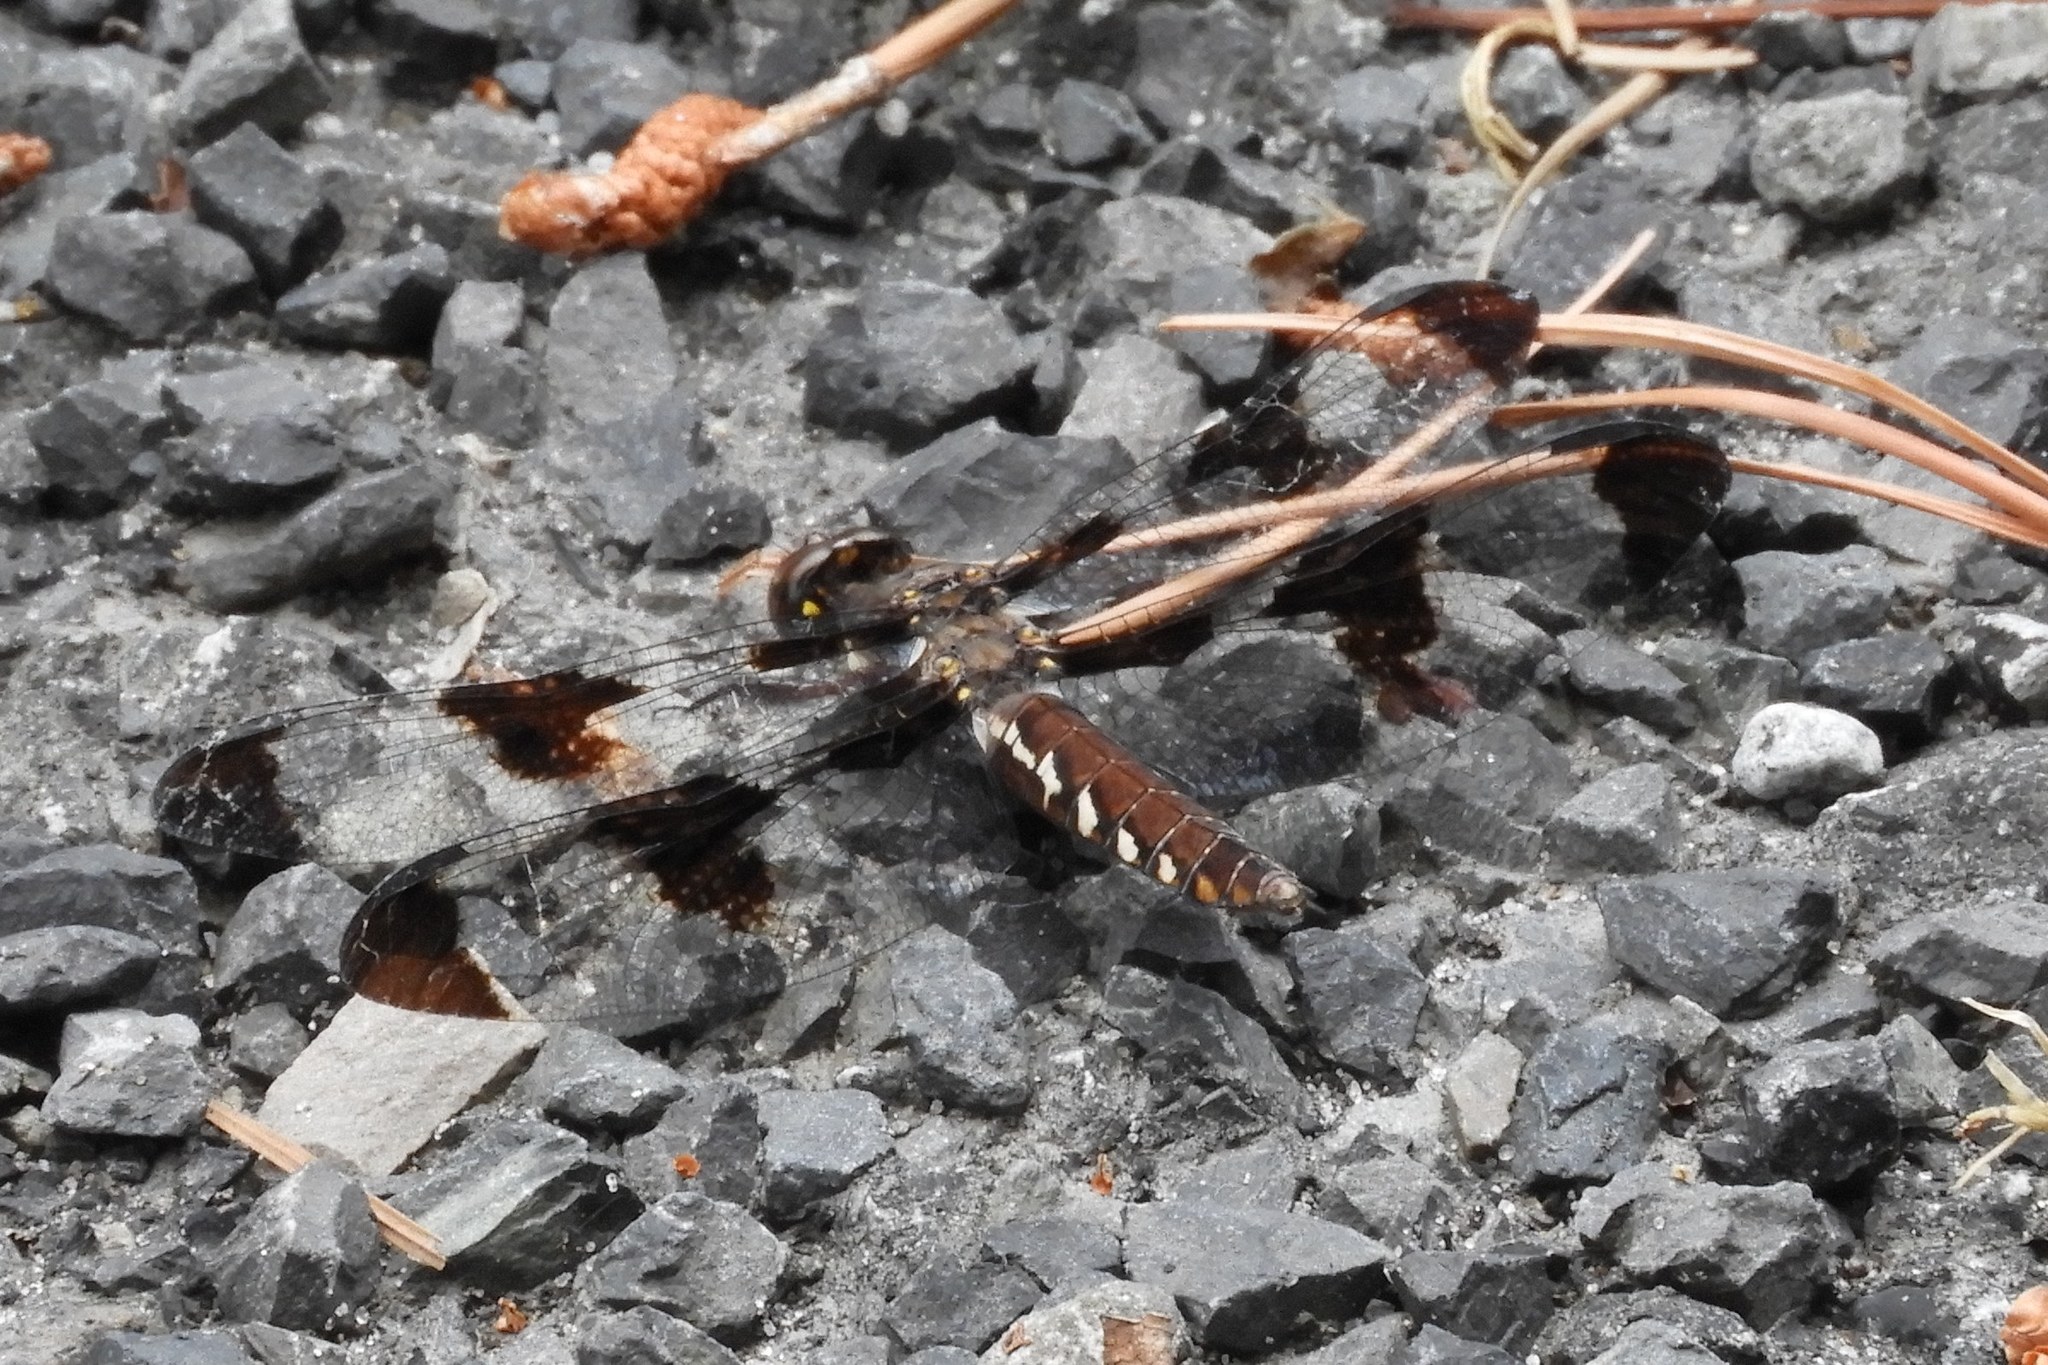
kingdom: Animalia
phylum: Arthropoda
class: Insecta
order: Odonata
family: Libellulidae
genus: Plathemis
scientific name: Plathemis lydia
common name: Common whitetail
